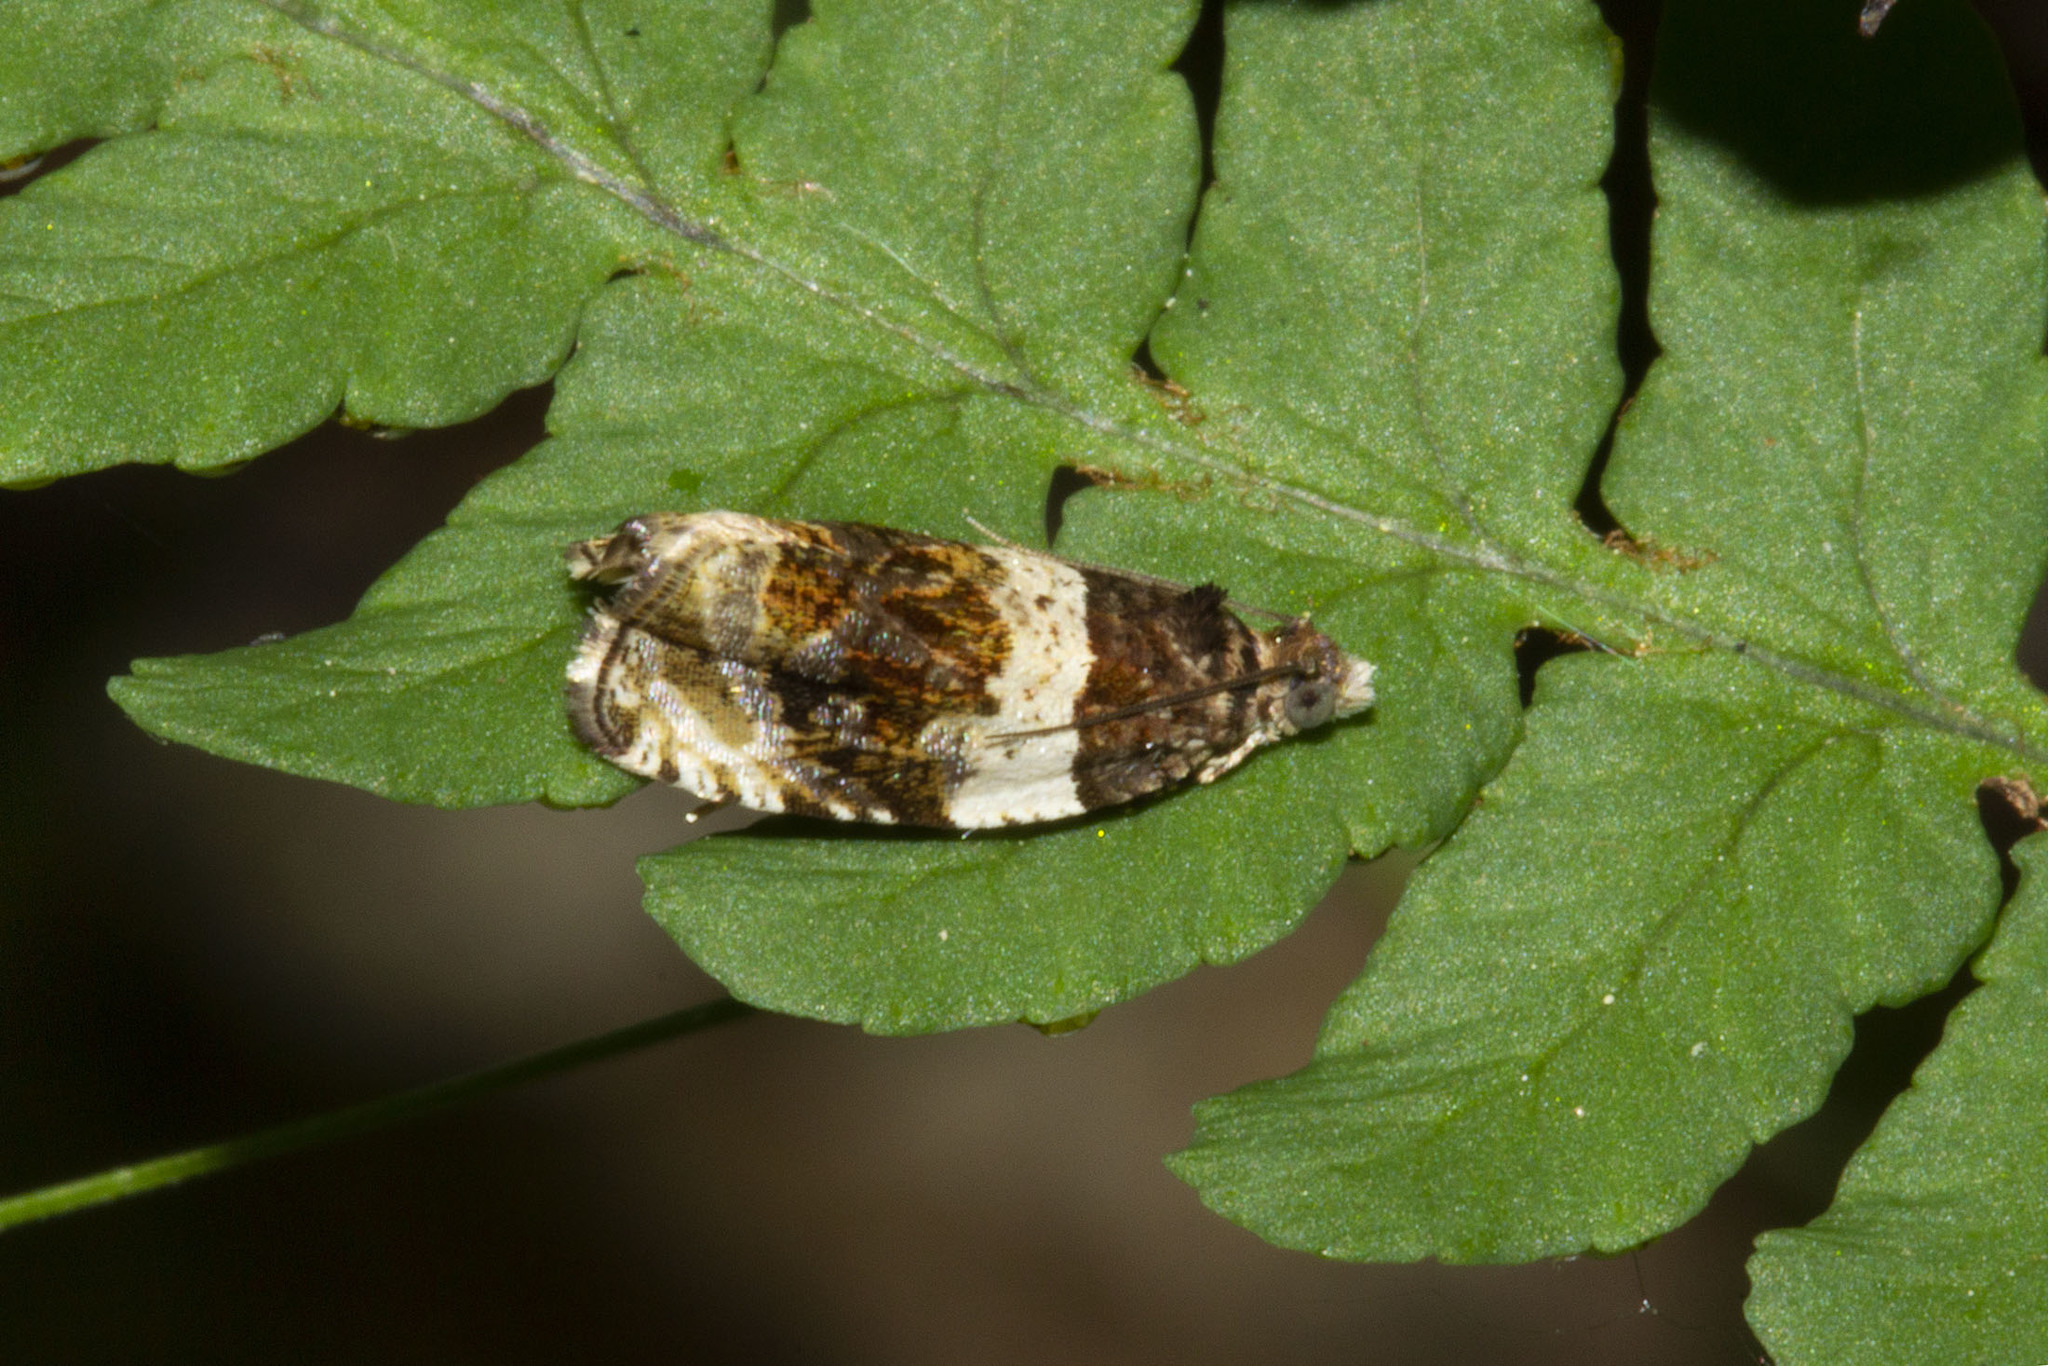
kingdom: Animalia
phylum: Arthropoda
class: Insecta
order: Lepidoptera
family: Tortricidae
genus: Olethreutes
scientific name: Olethreutes fasciatana
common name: Banded olethreutes moth
